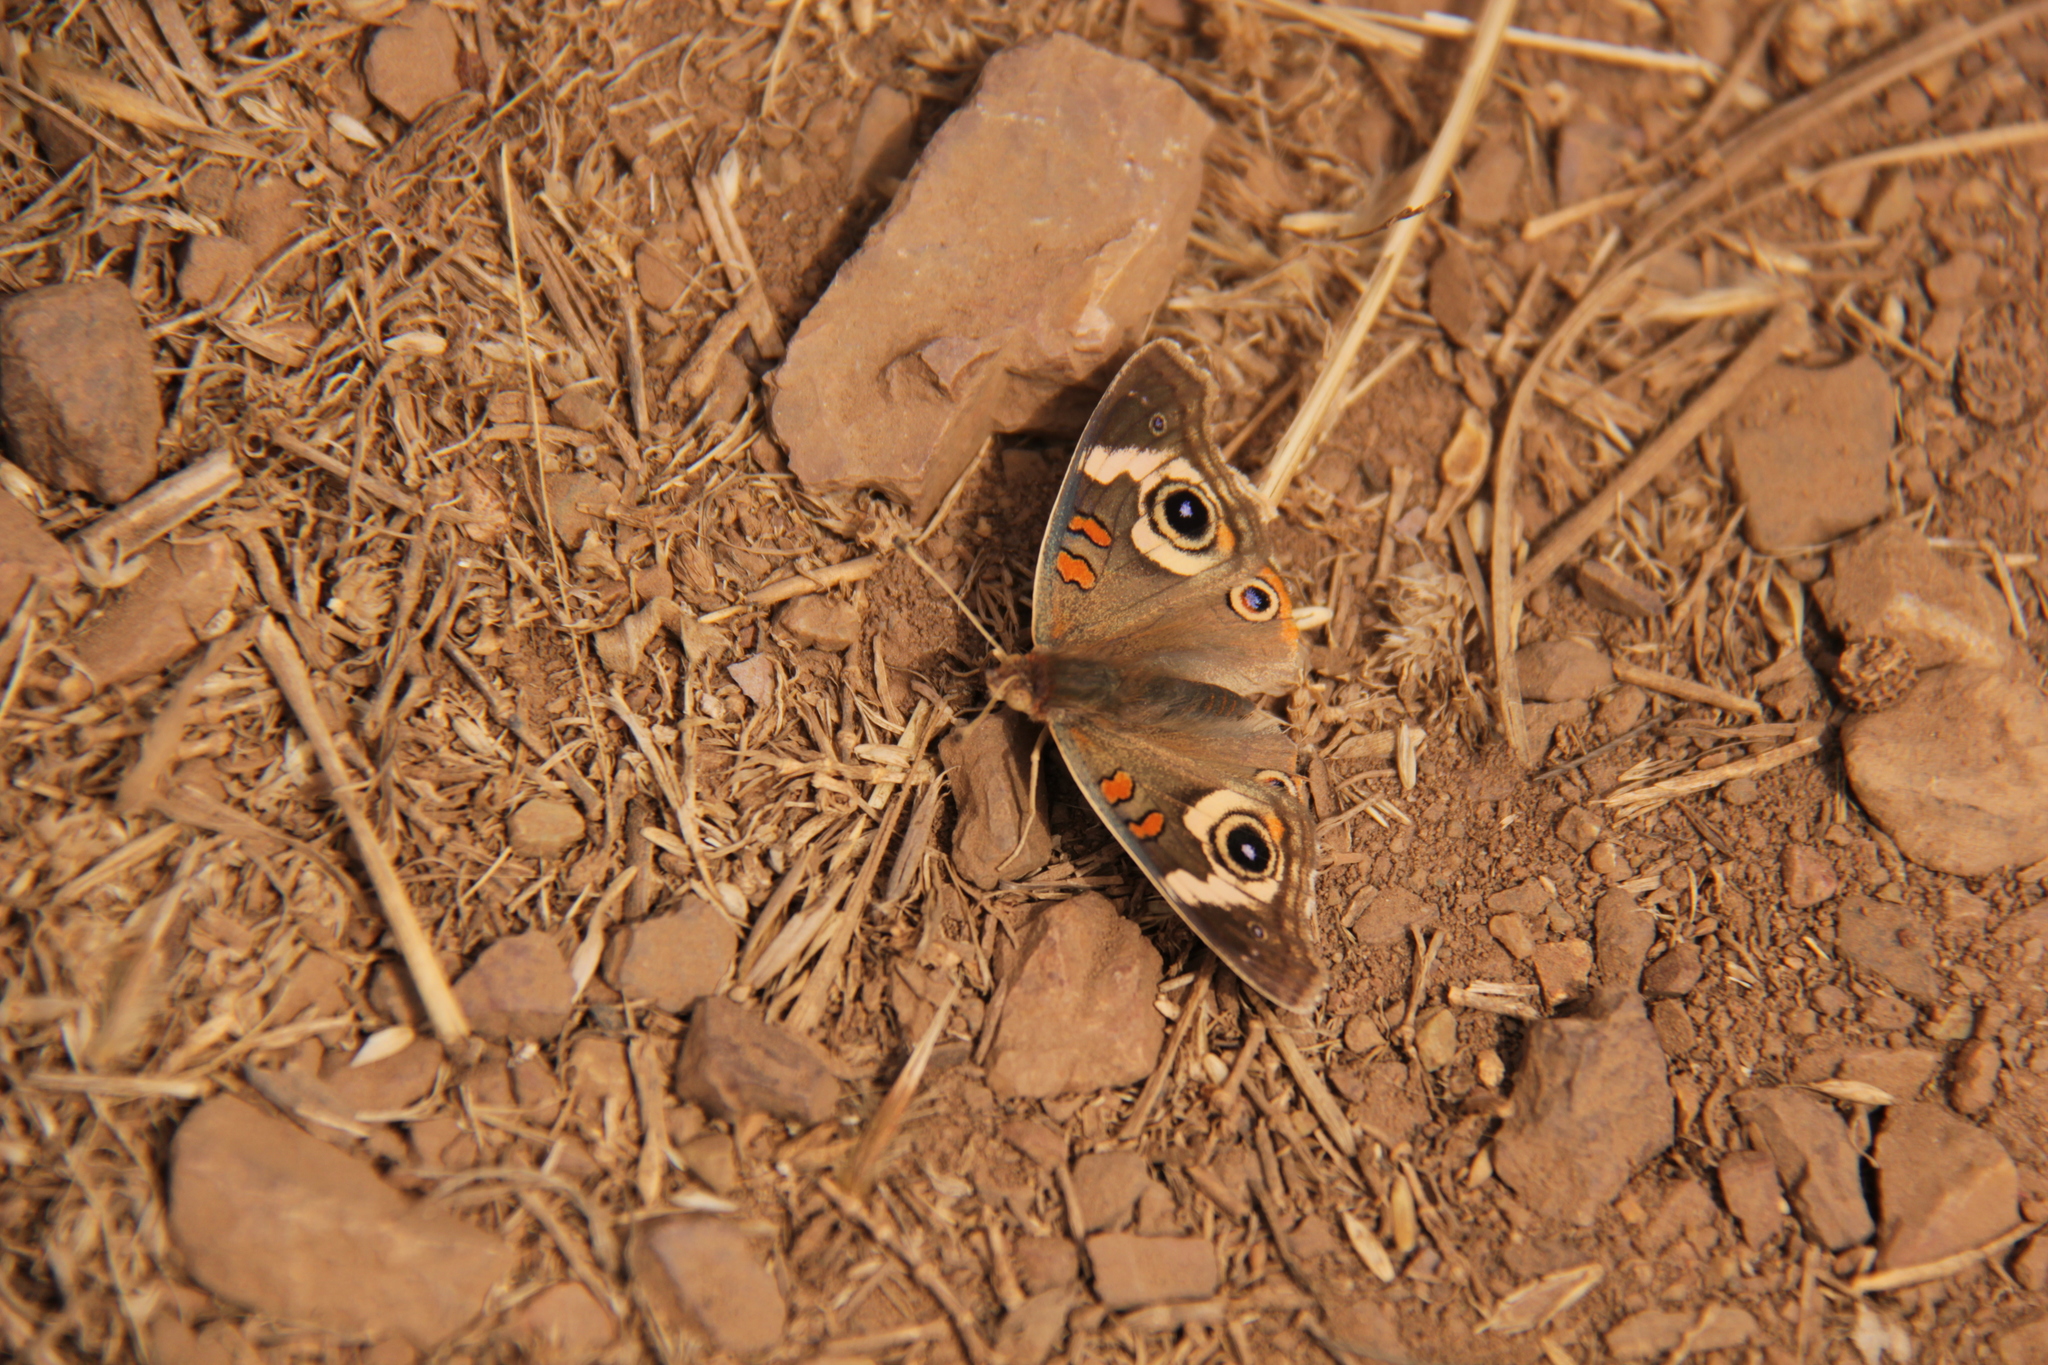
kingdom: Animalia
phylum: Arthropoda
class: Insecta
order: Lepidoptera
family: Nymphalidae
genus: Junonia
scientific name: Junonia grisea
